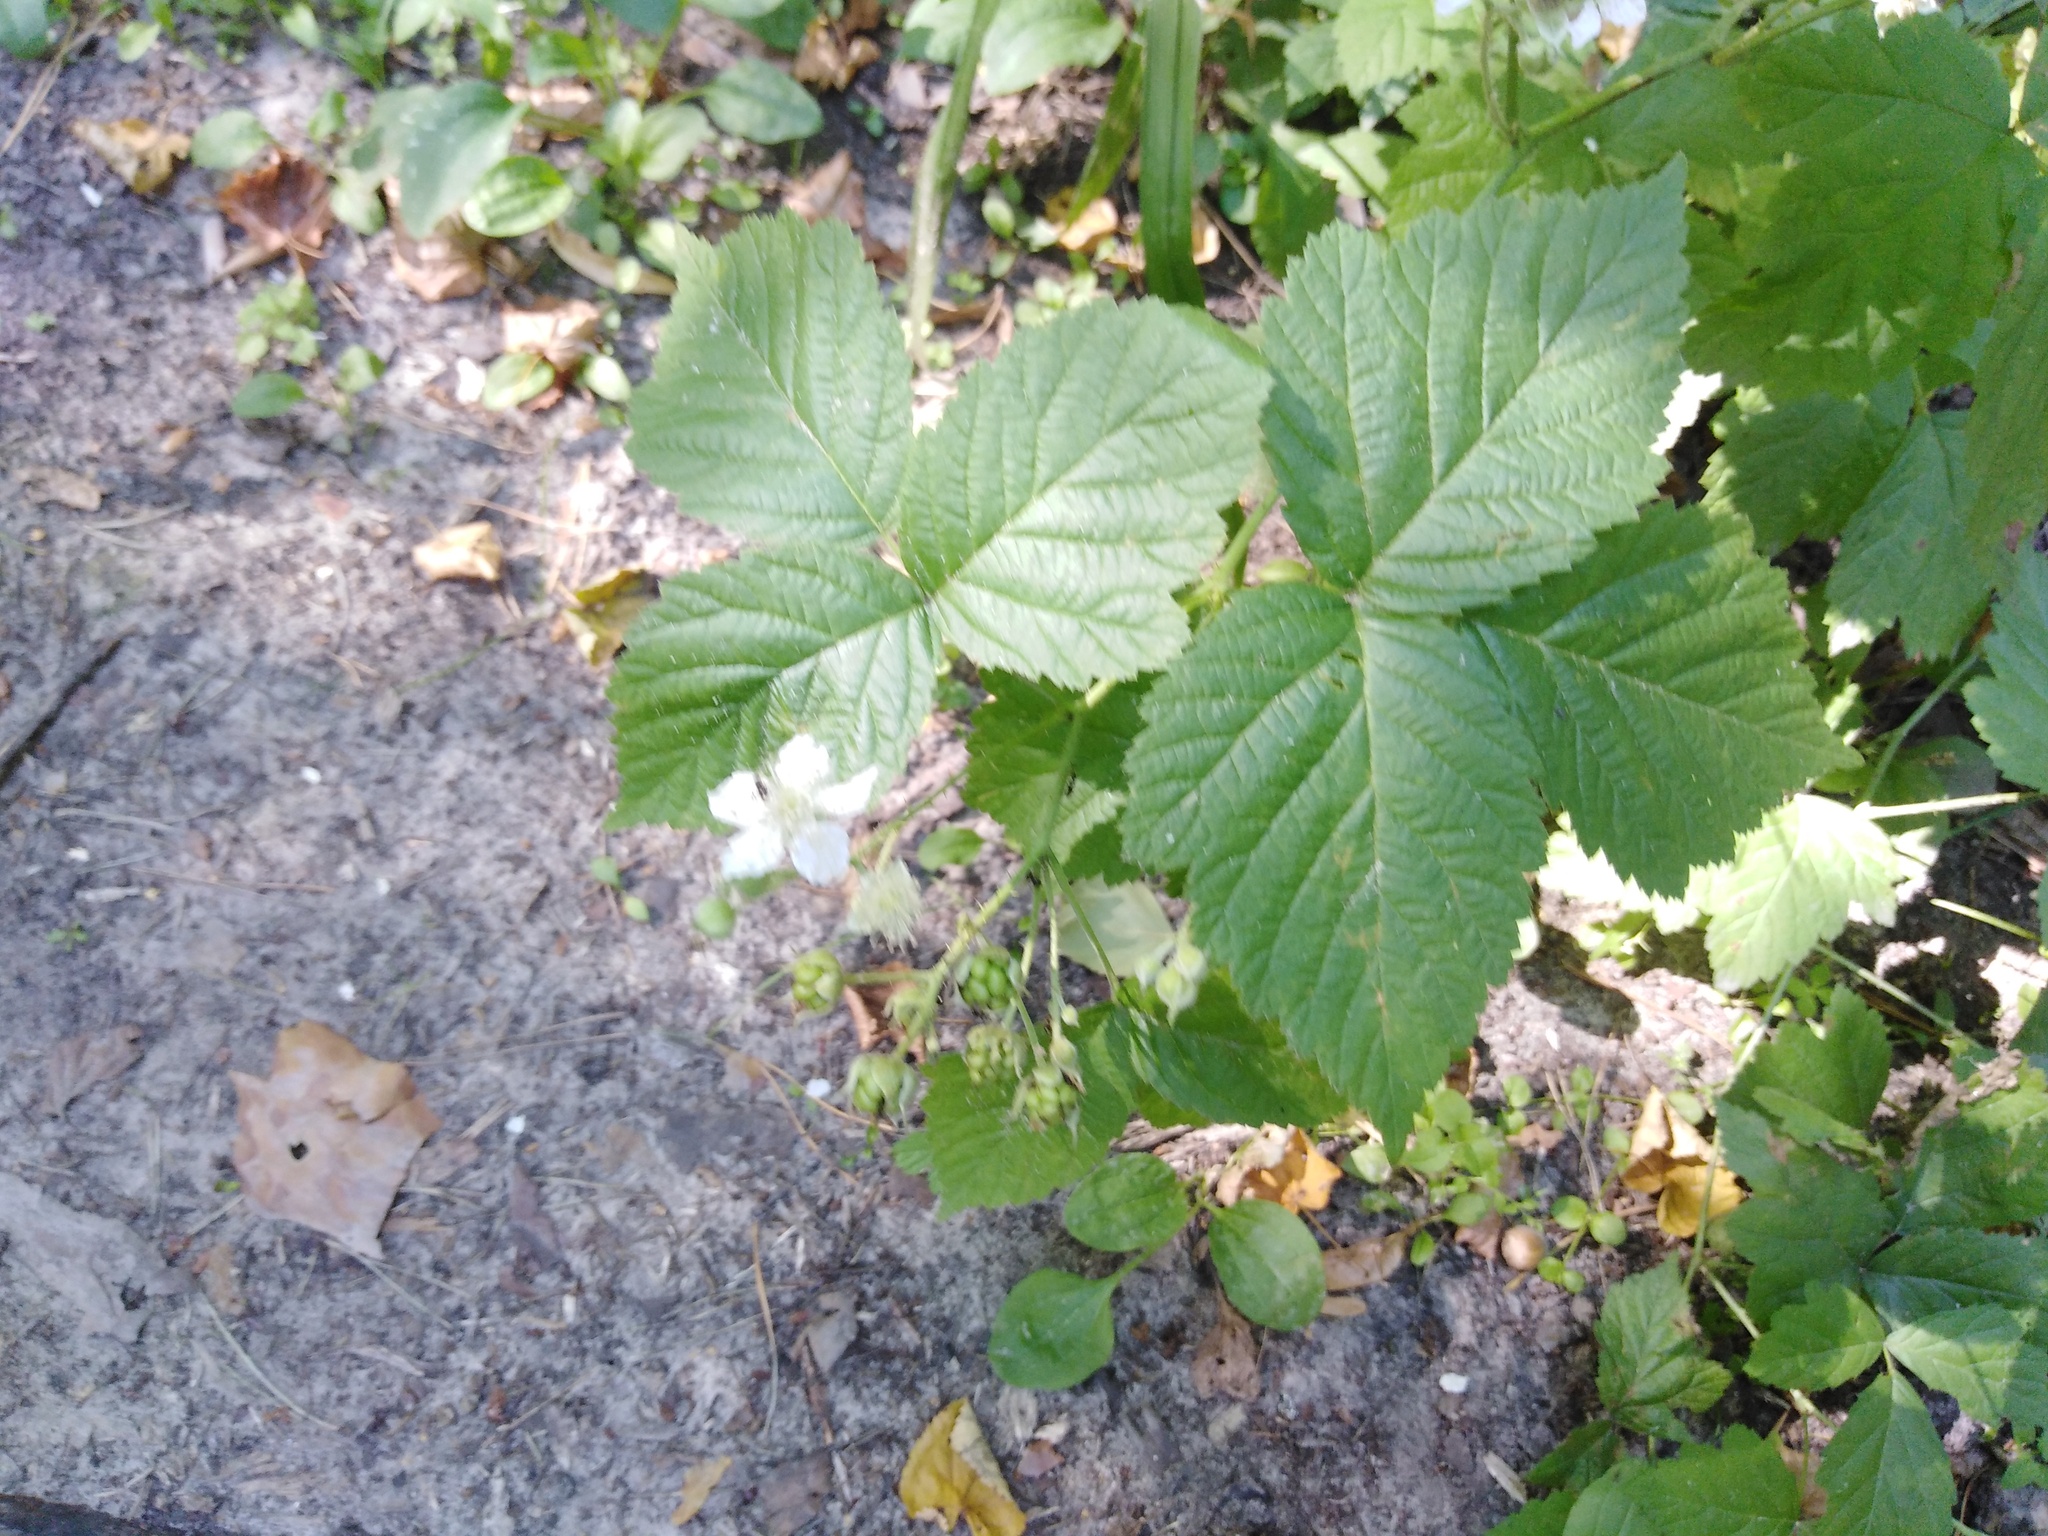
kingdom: Plantae
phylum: Tracheophyta
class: Magnoliopsida
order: Rosales
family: Rosaceae
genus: Rubus
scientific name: Rubus caesius
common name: Dewberry
